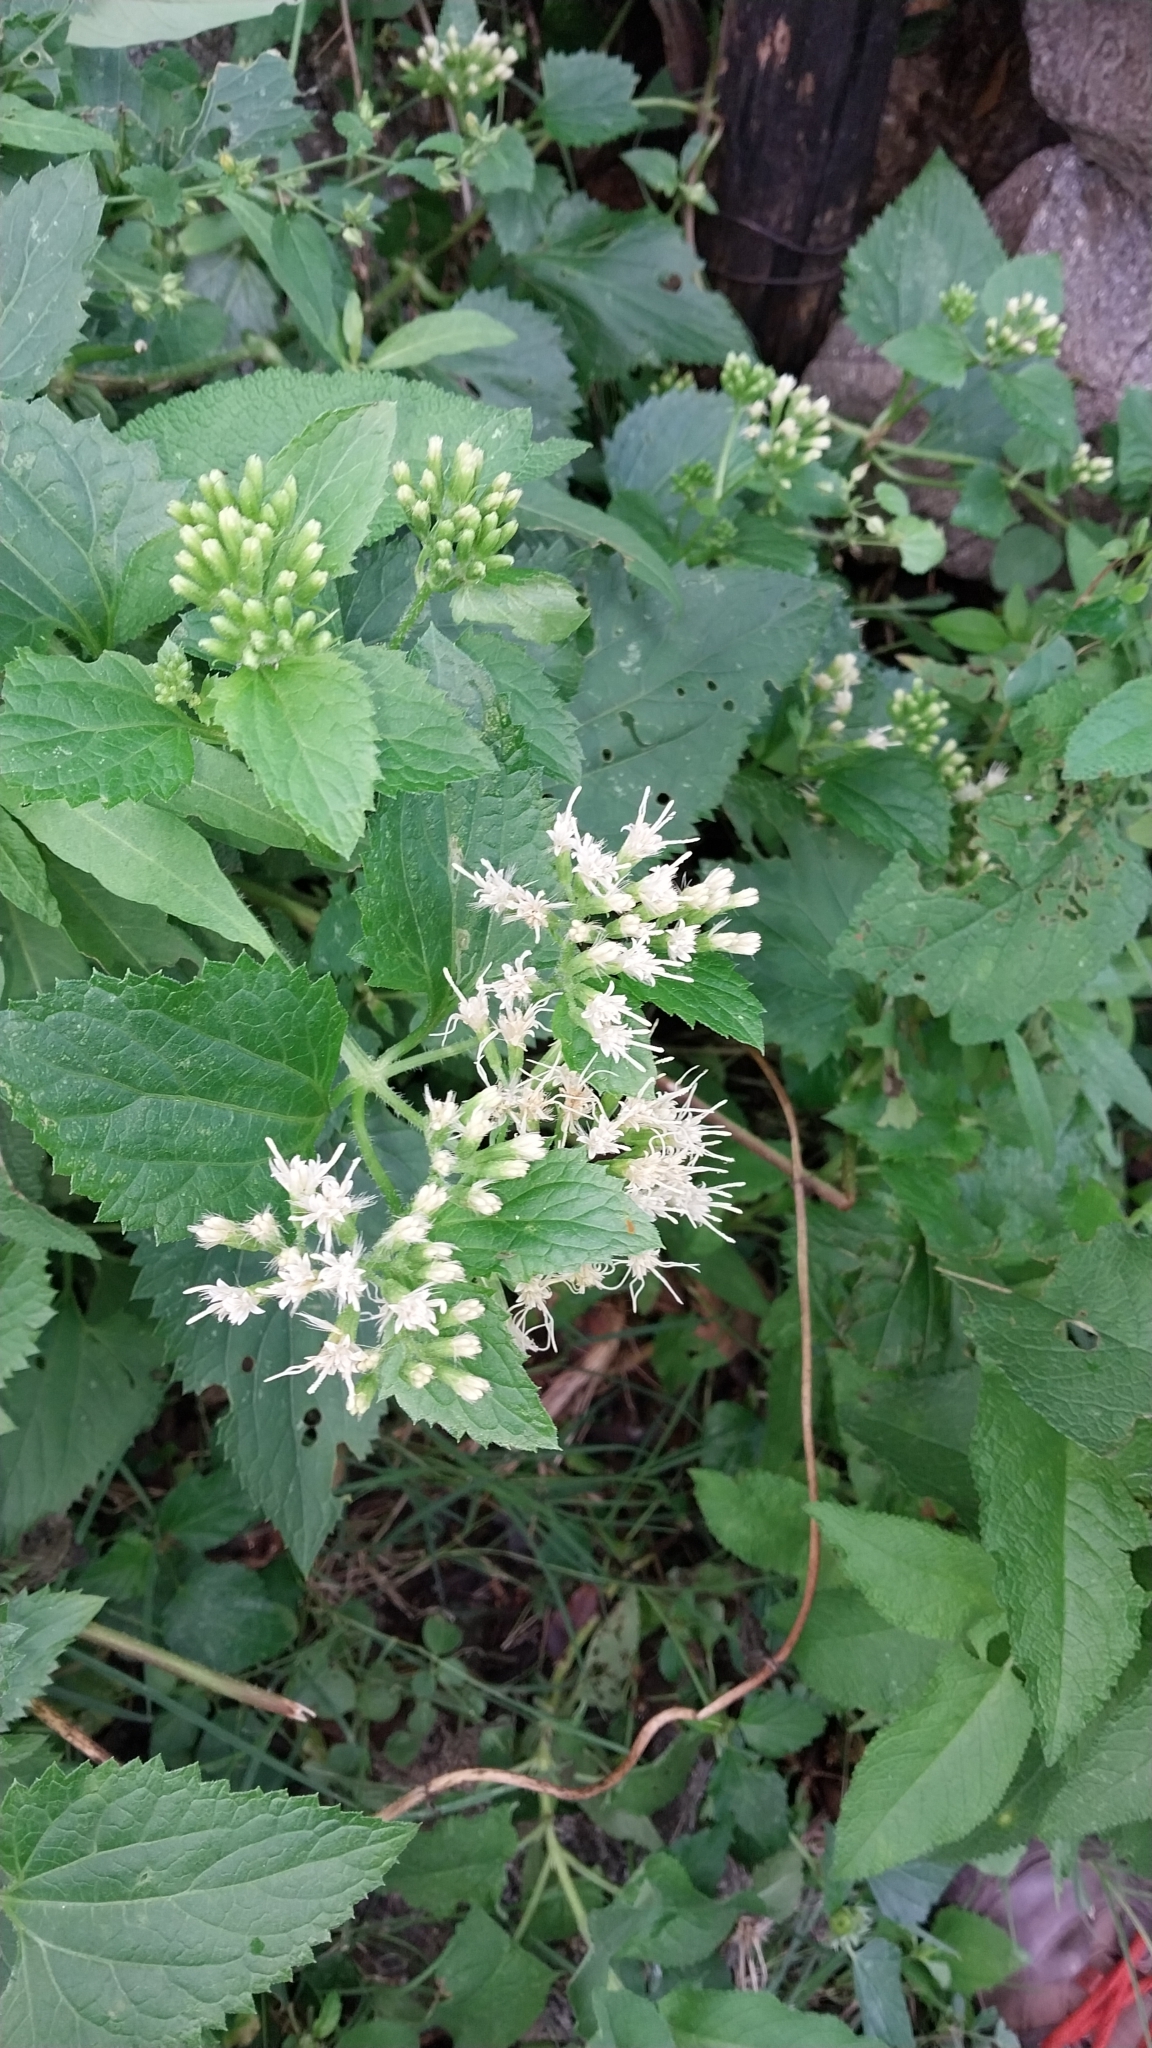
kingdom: Plantae
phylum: Tracheophyta
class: Magnoliopsida
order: Asterales
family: Asteraceae
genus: Mikania
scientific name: Mikania urticifolia
